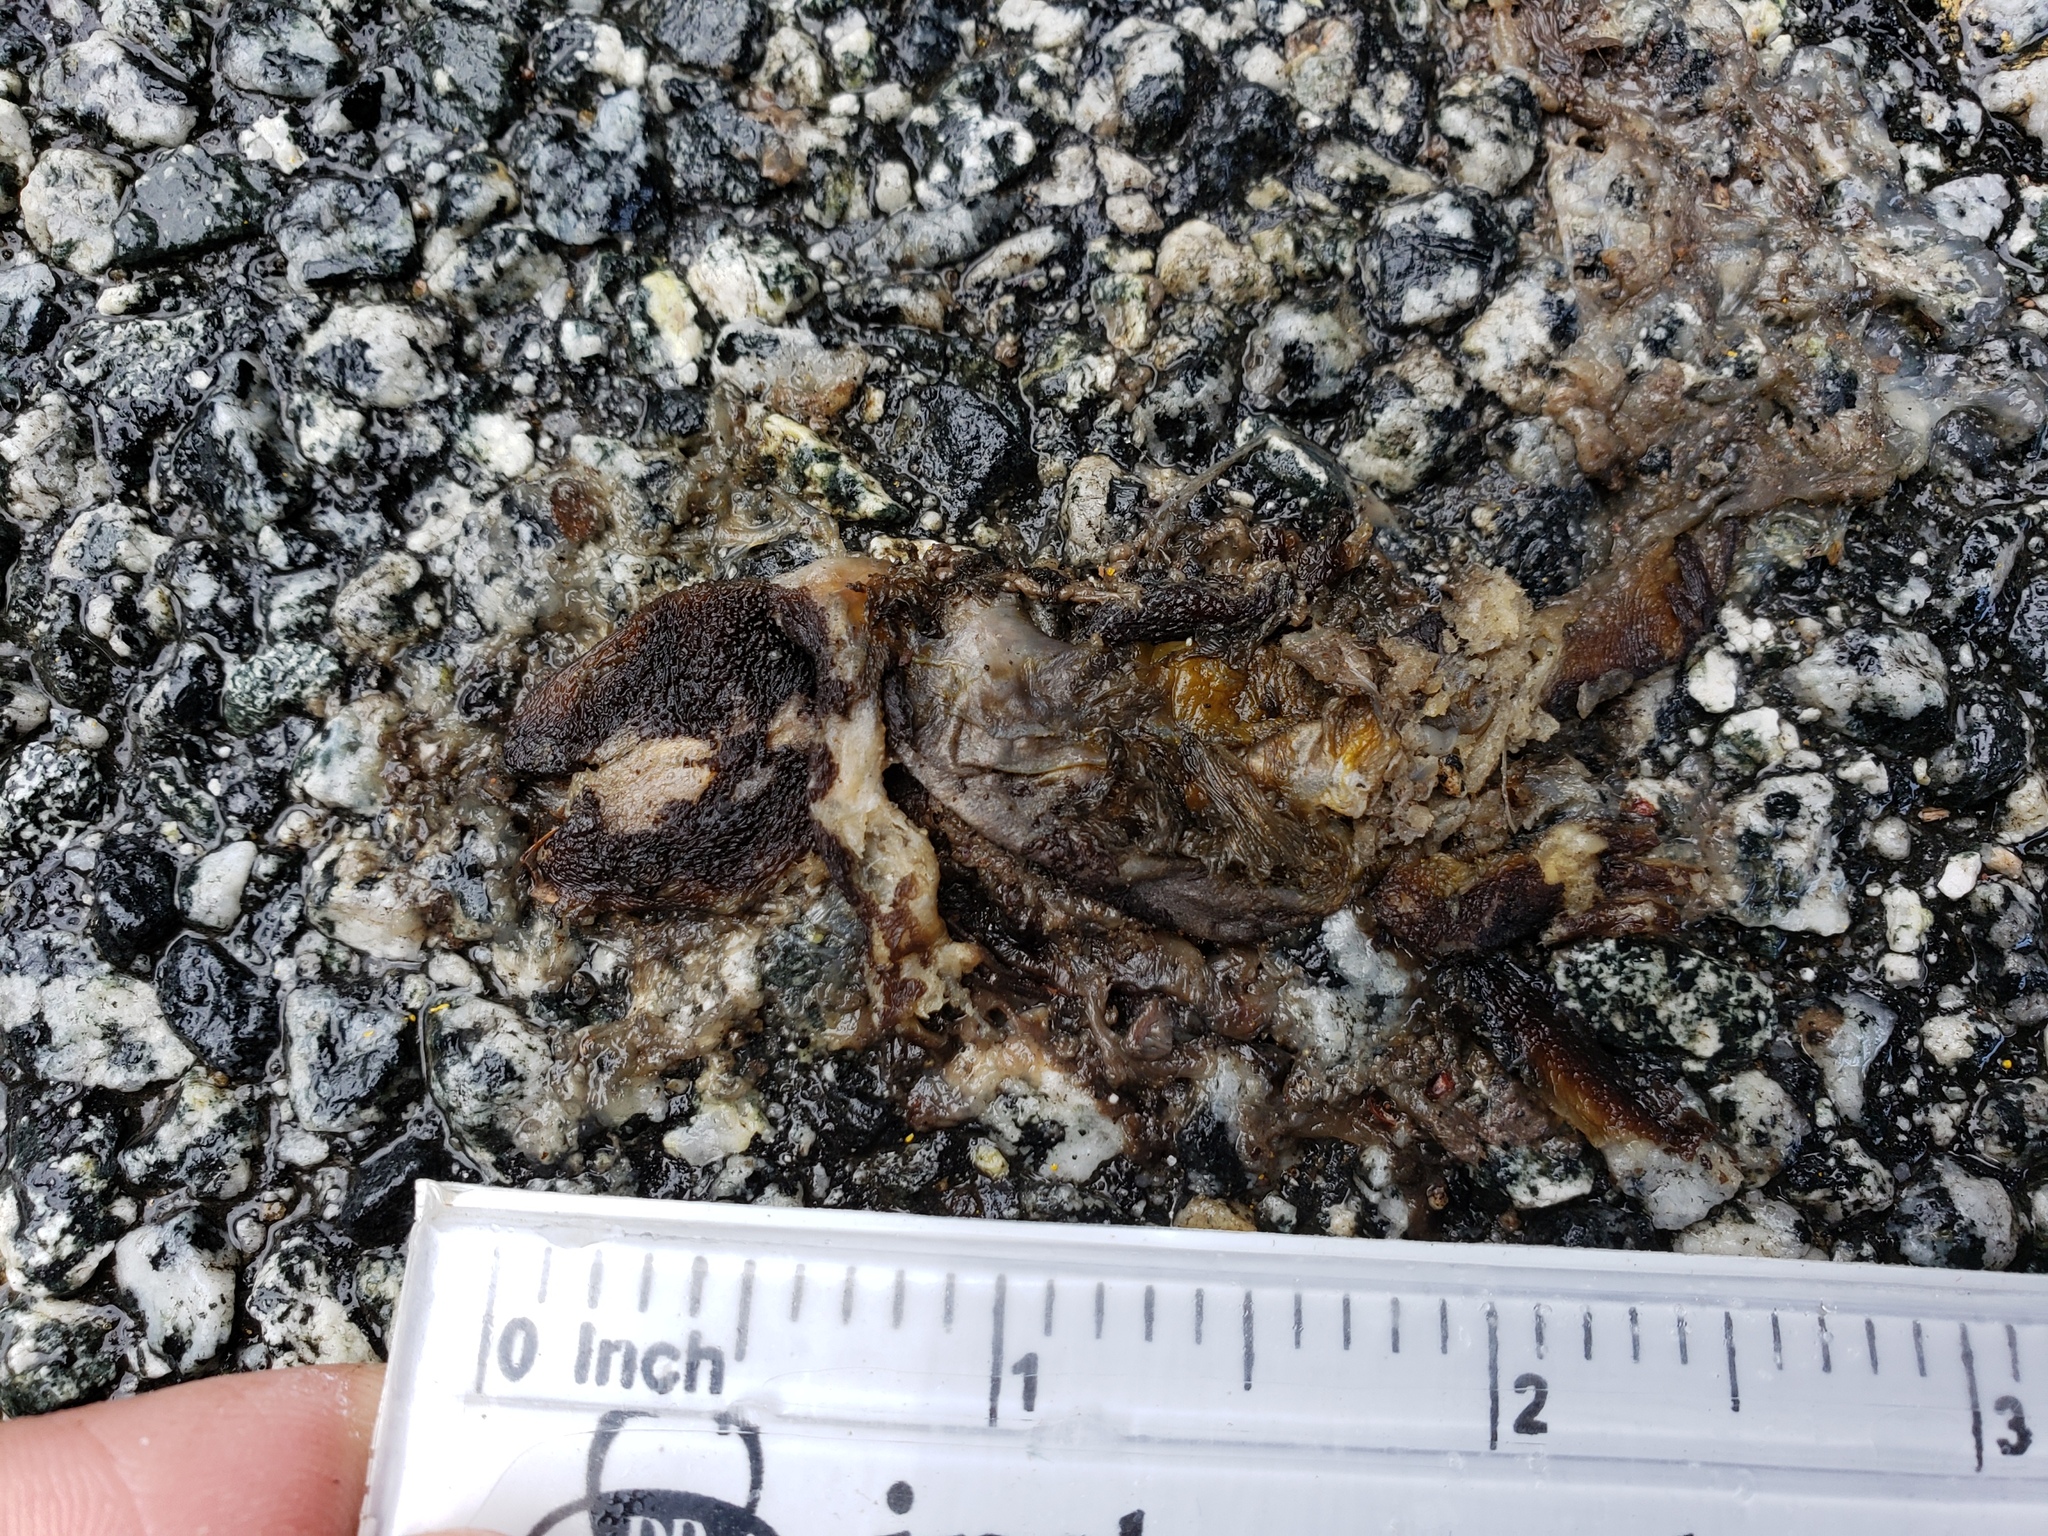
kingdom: Animalia
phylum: Chordata
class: Amphibia
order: Caudata
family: Salamandridae
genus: Taricha
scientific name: Taricha
